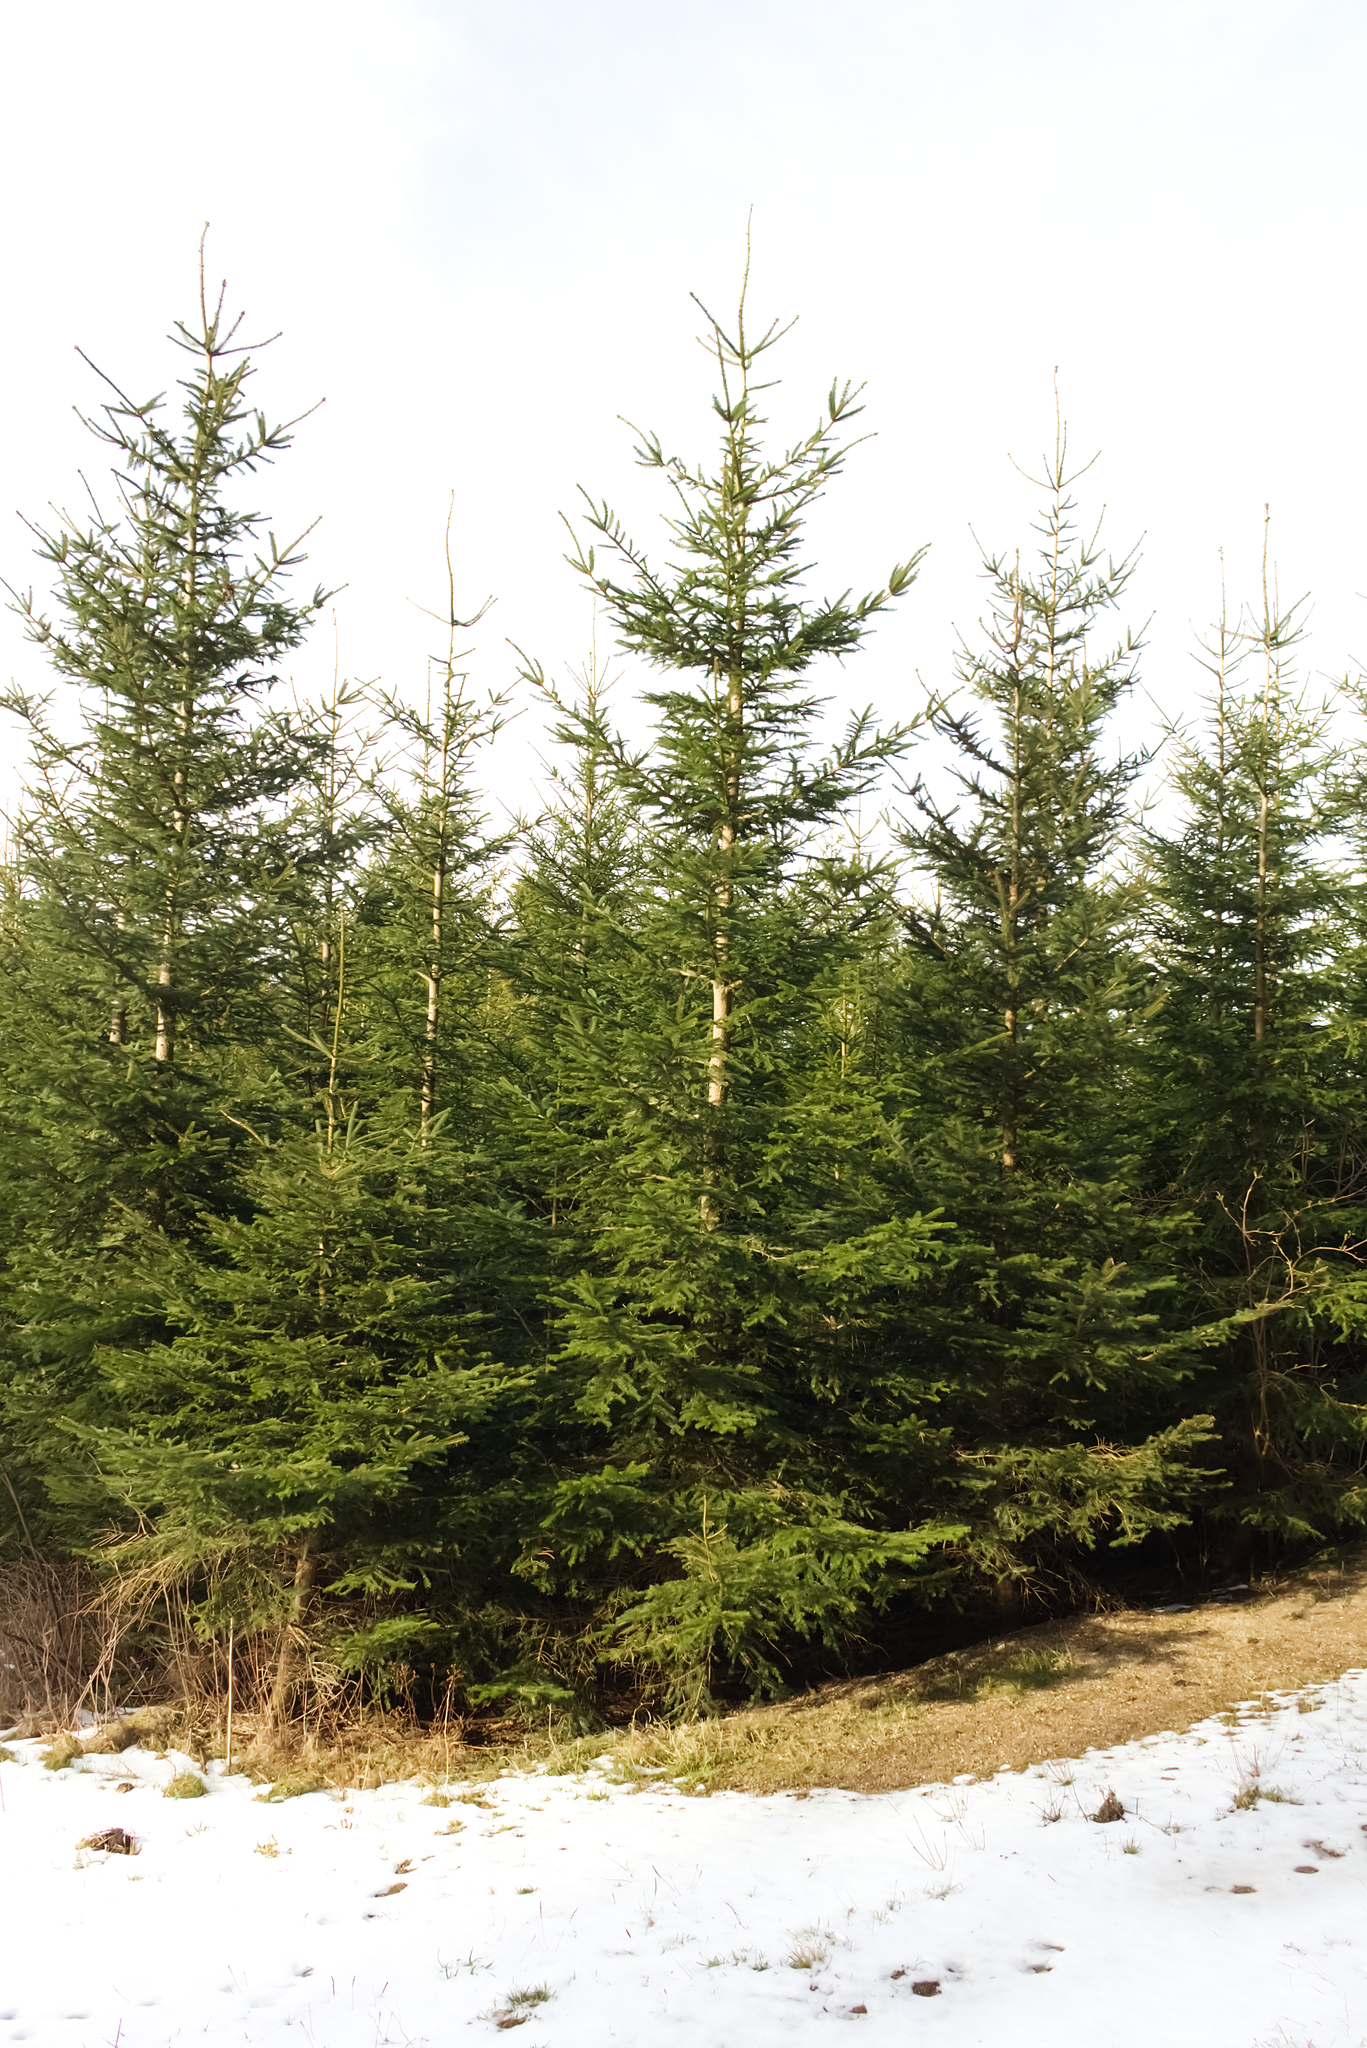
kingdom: Plantae
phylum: Tracheophyta
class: Pinopsida
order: Pinales
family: Pinaceae
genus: Picea
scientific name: Picea abies
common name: Norway spruce
